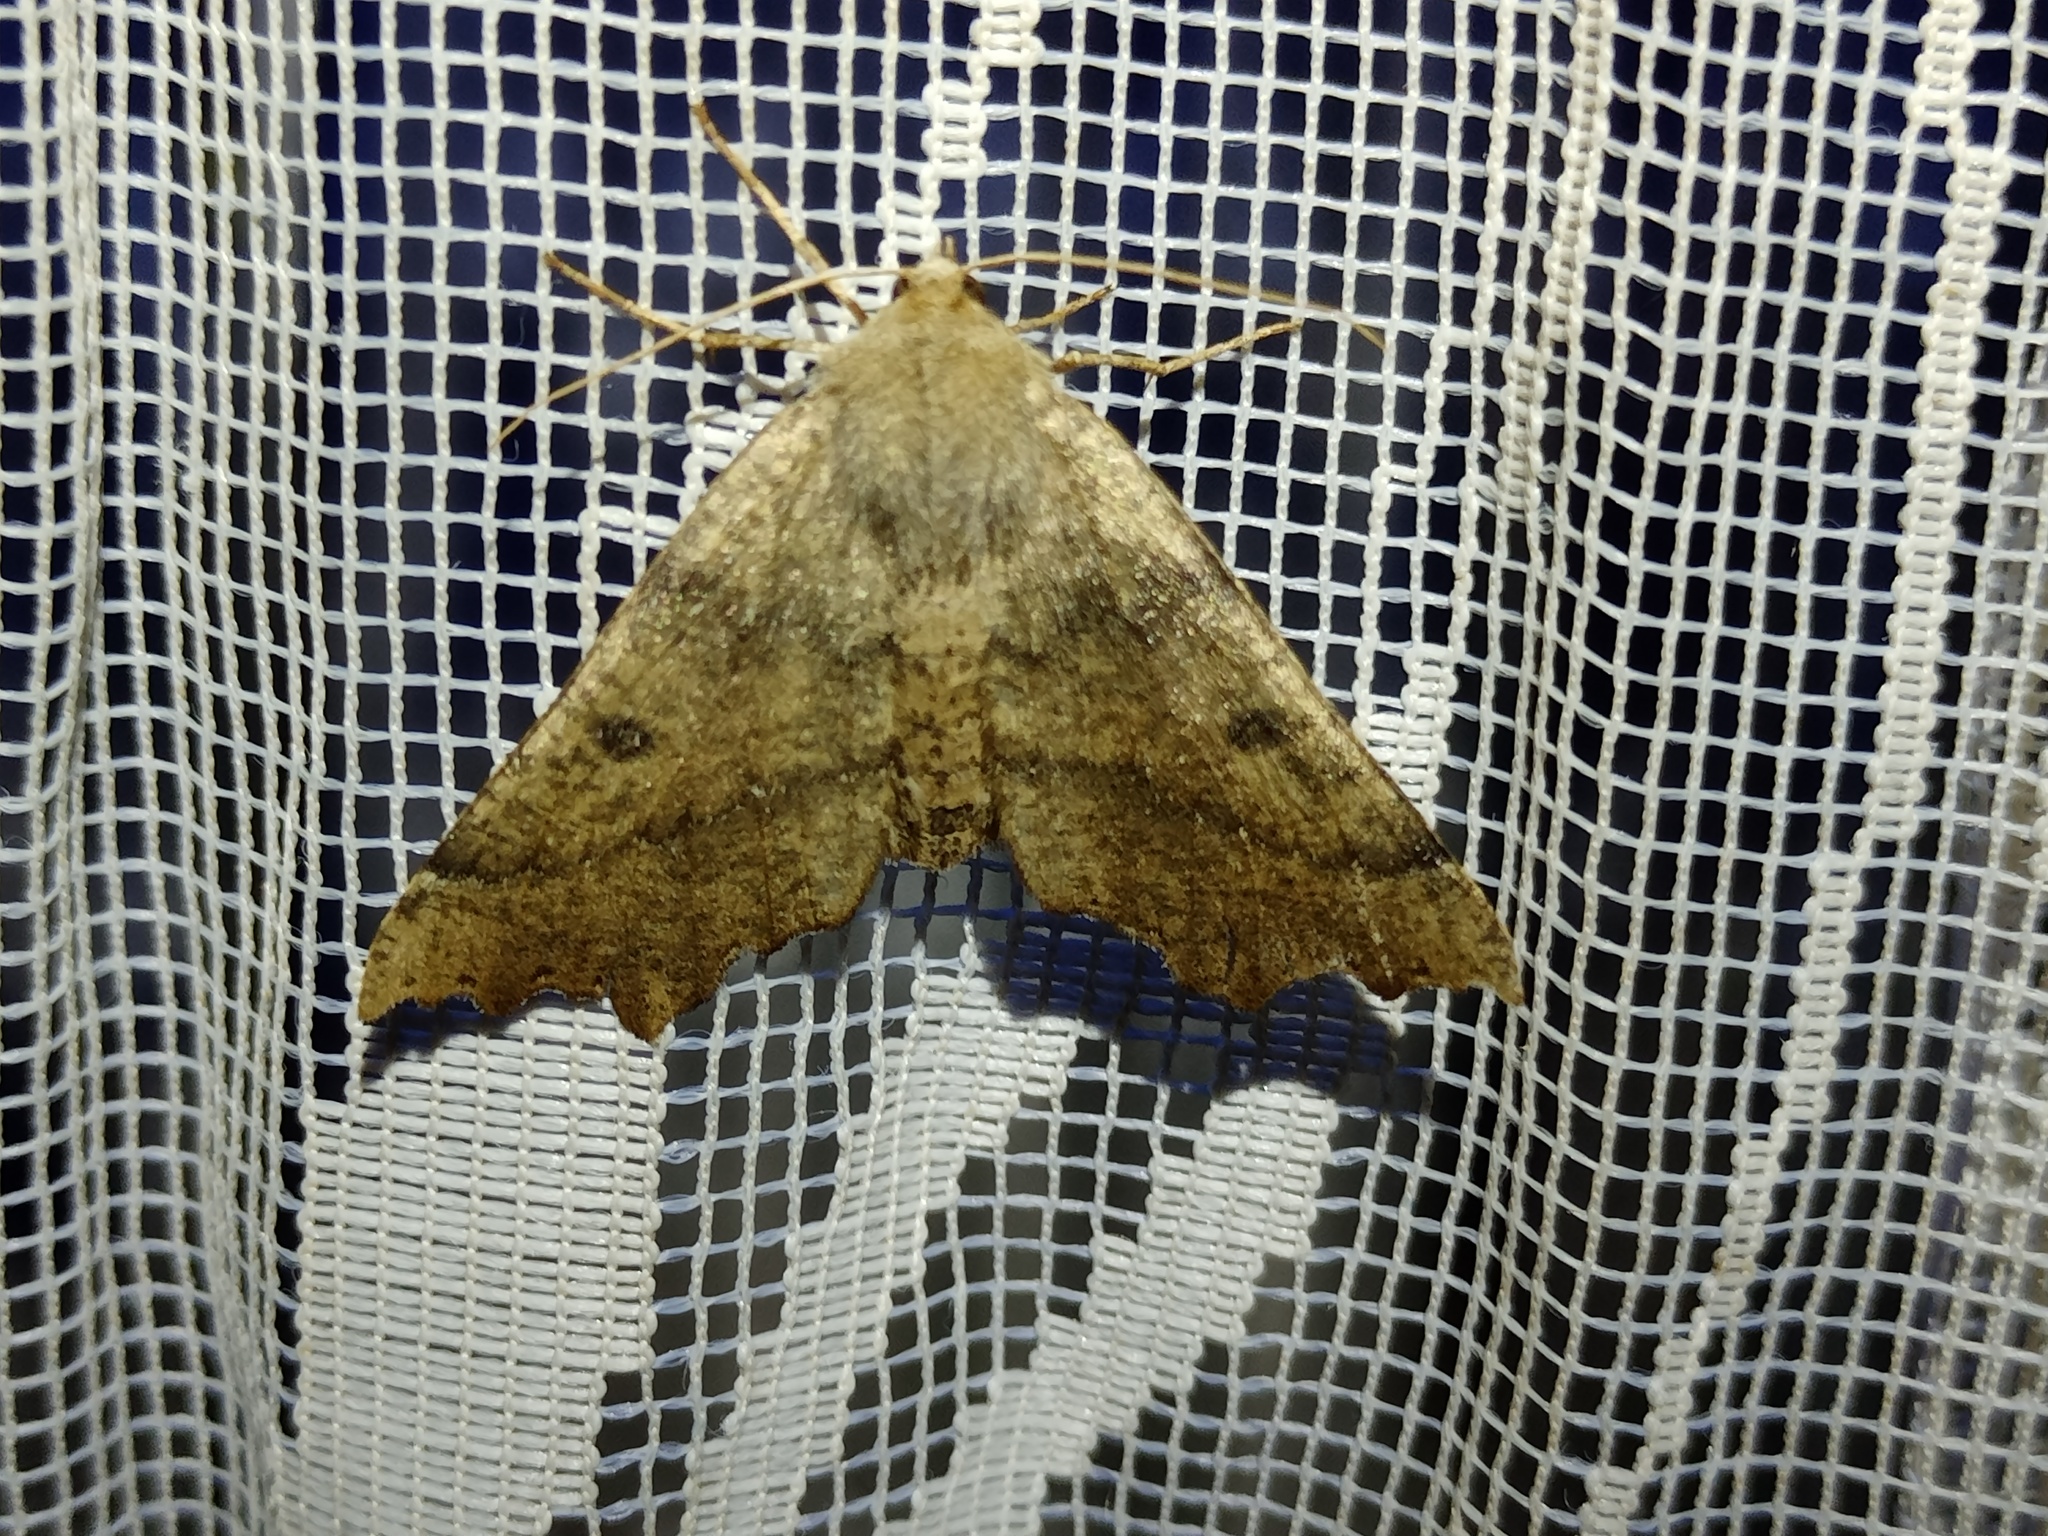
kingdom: Animalia
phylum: Arthropoda
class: Insecta
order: Lepidoptera
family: Geometridae
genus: Odontopera
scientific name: Odontopera bidentata
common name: Scalloped hazel
